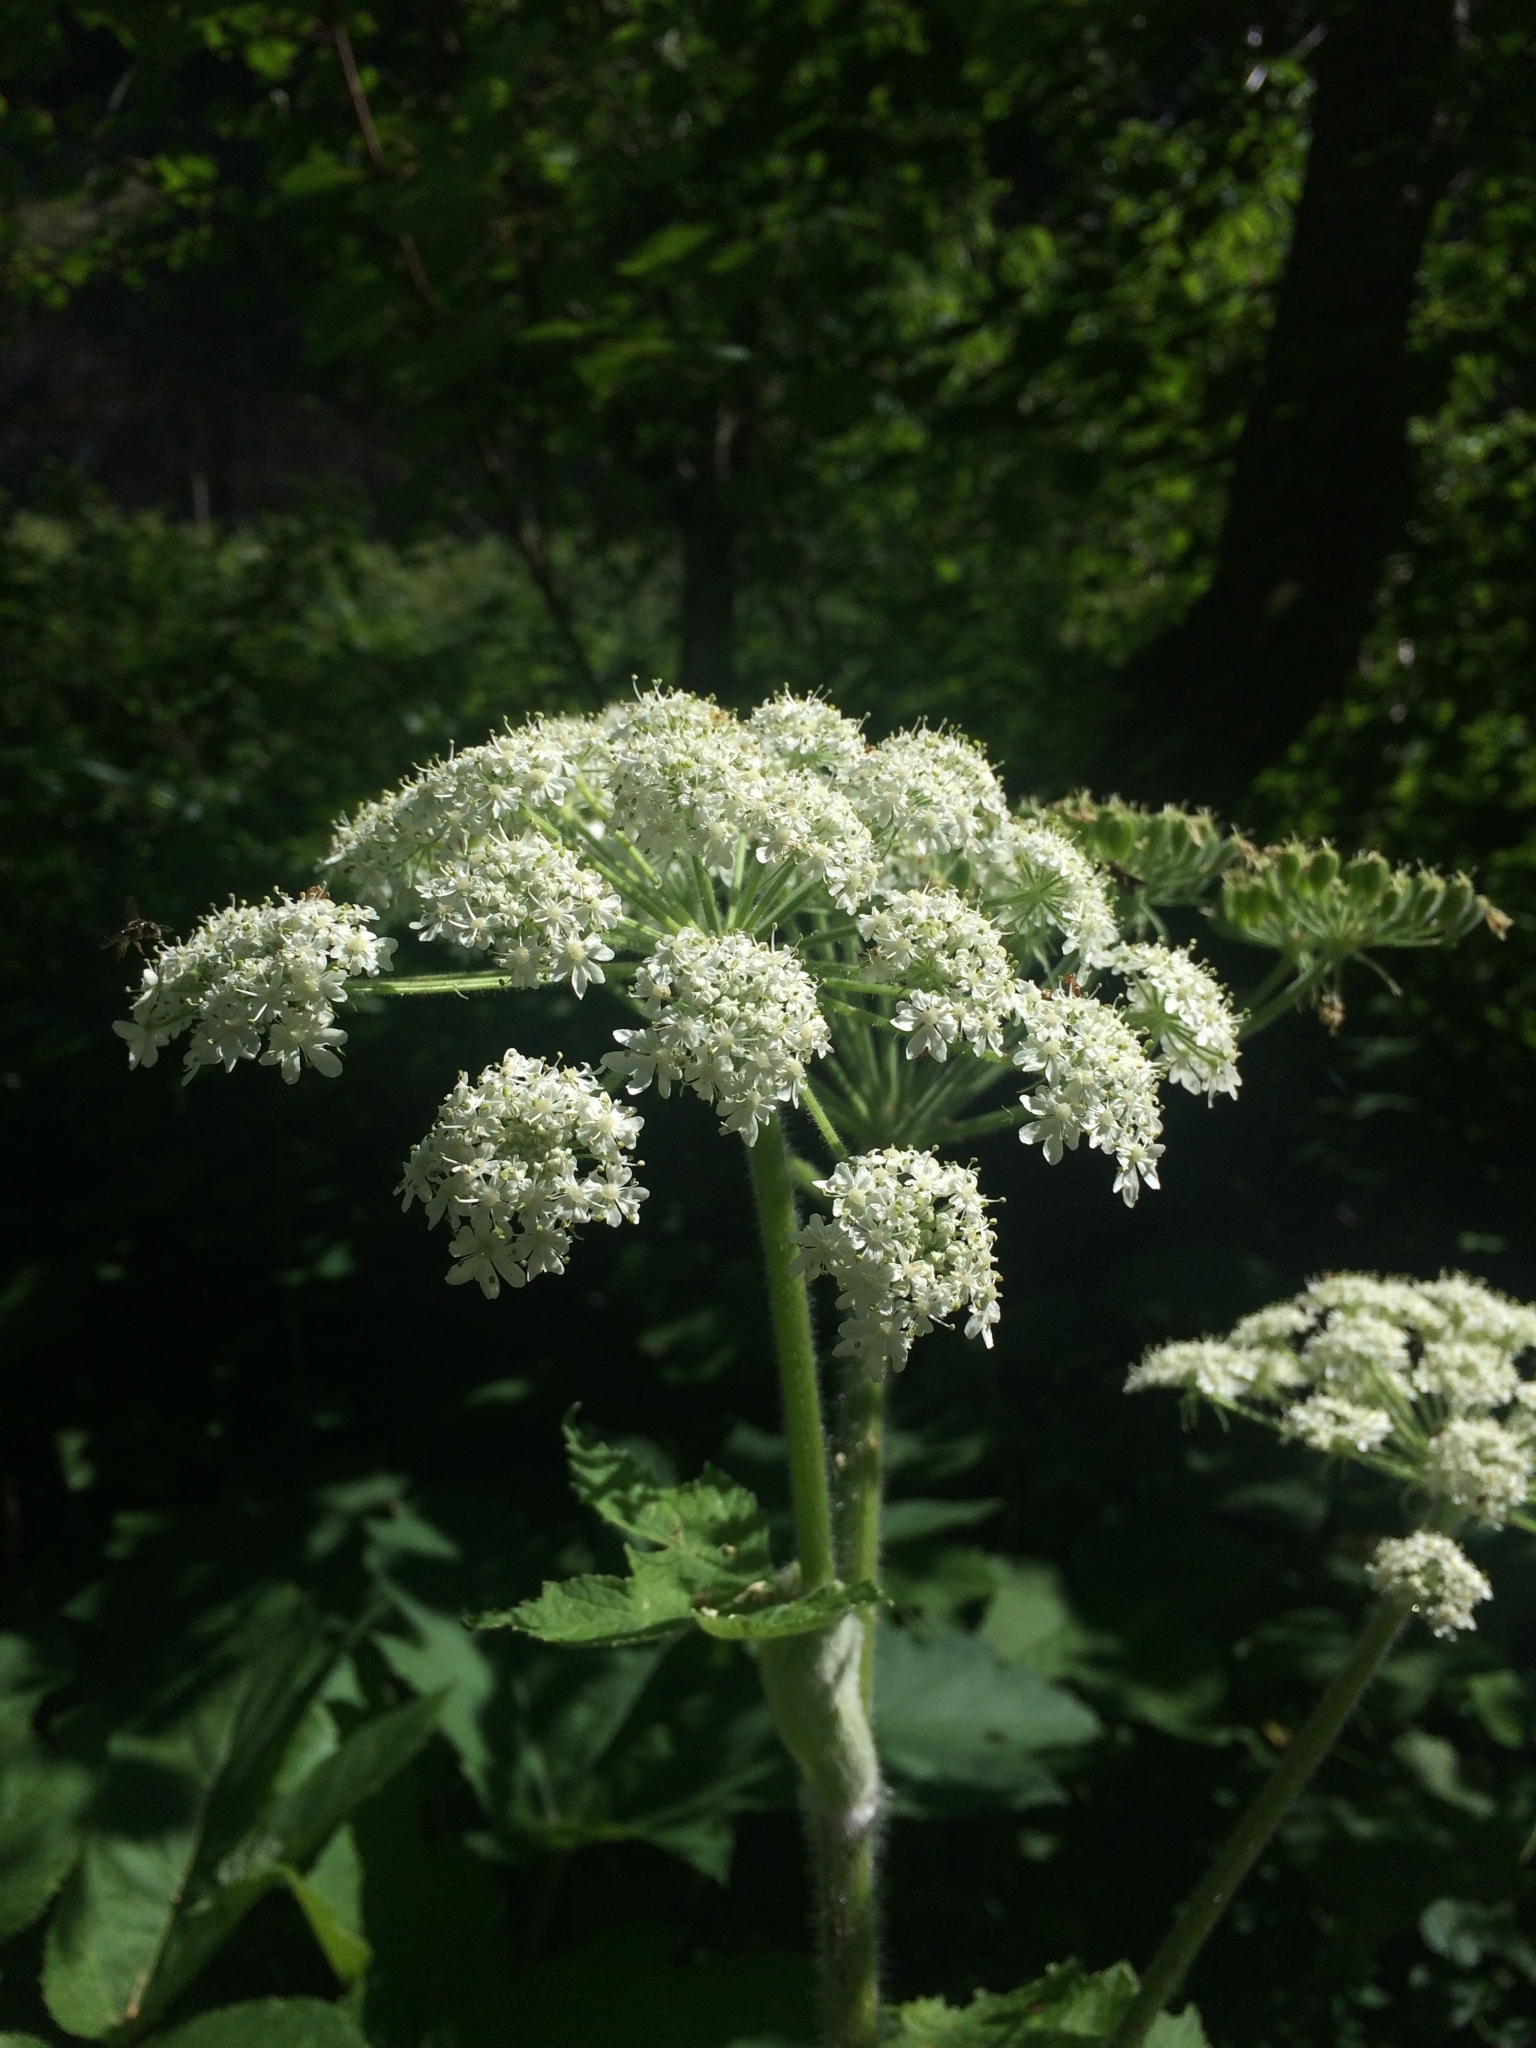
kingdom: Plantae
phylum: Tracheophyta
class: Magnoliopsida
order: Apiales
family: Apiaceae
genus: Heracleum
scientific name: Heracleum maximum
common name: American cow parsnip
